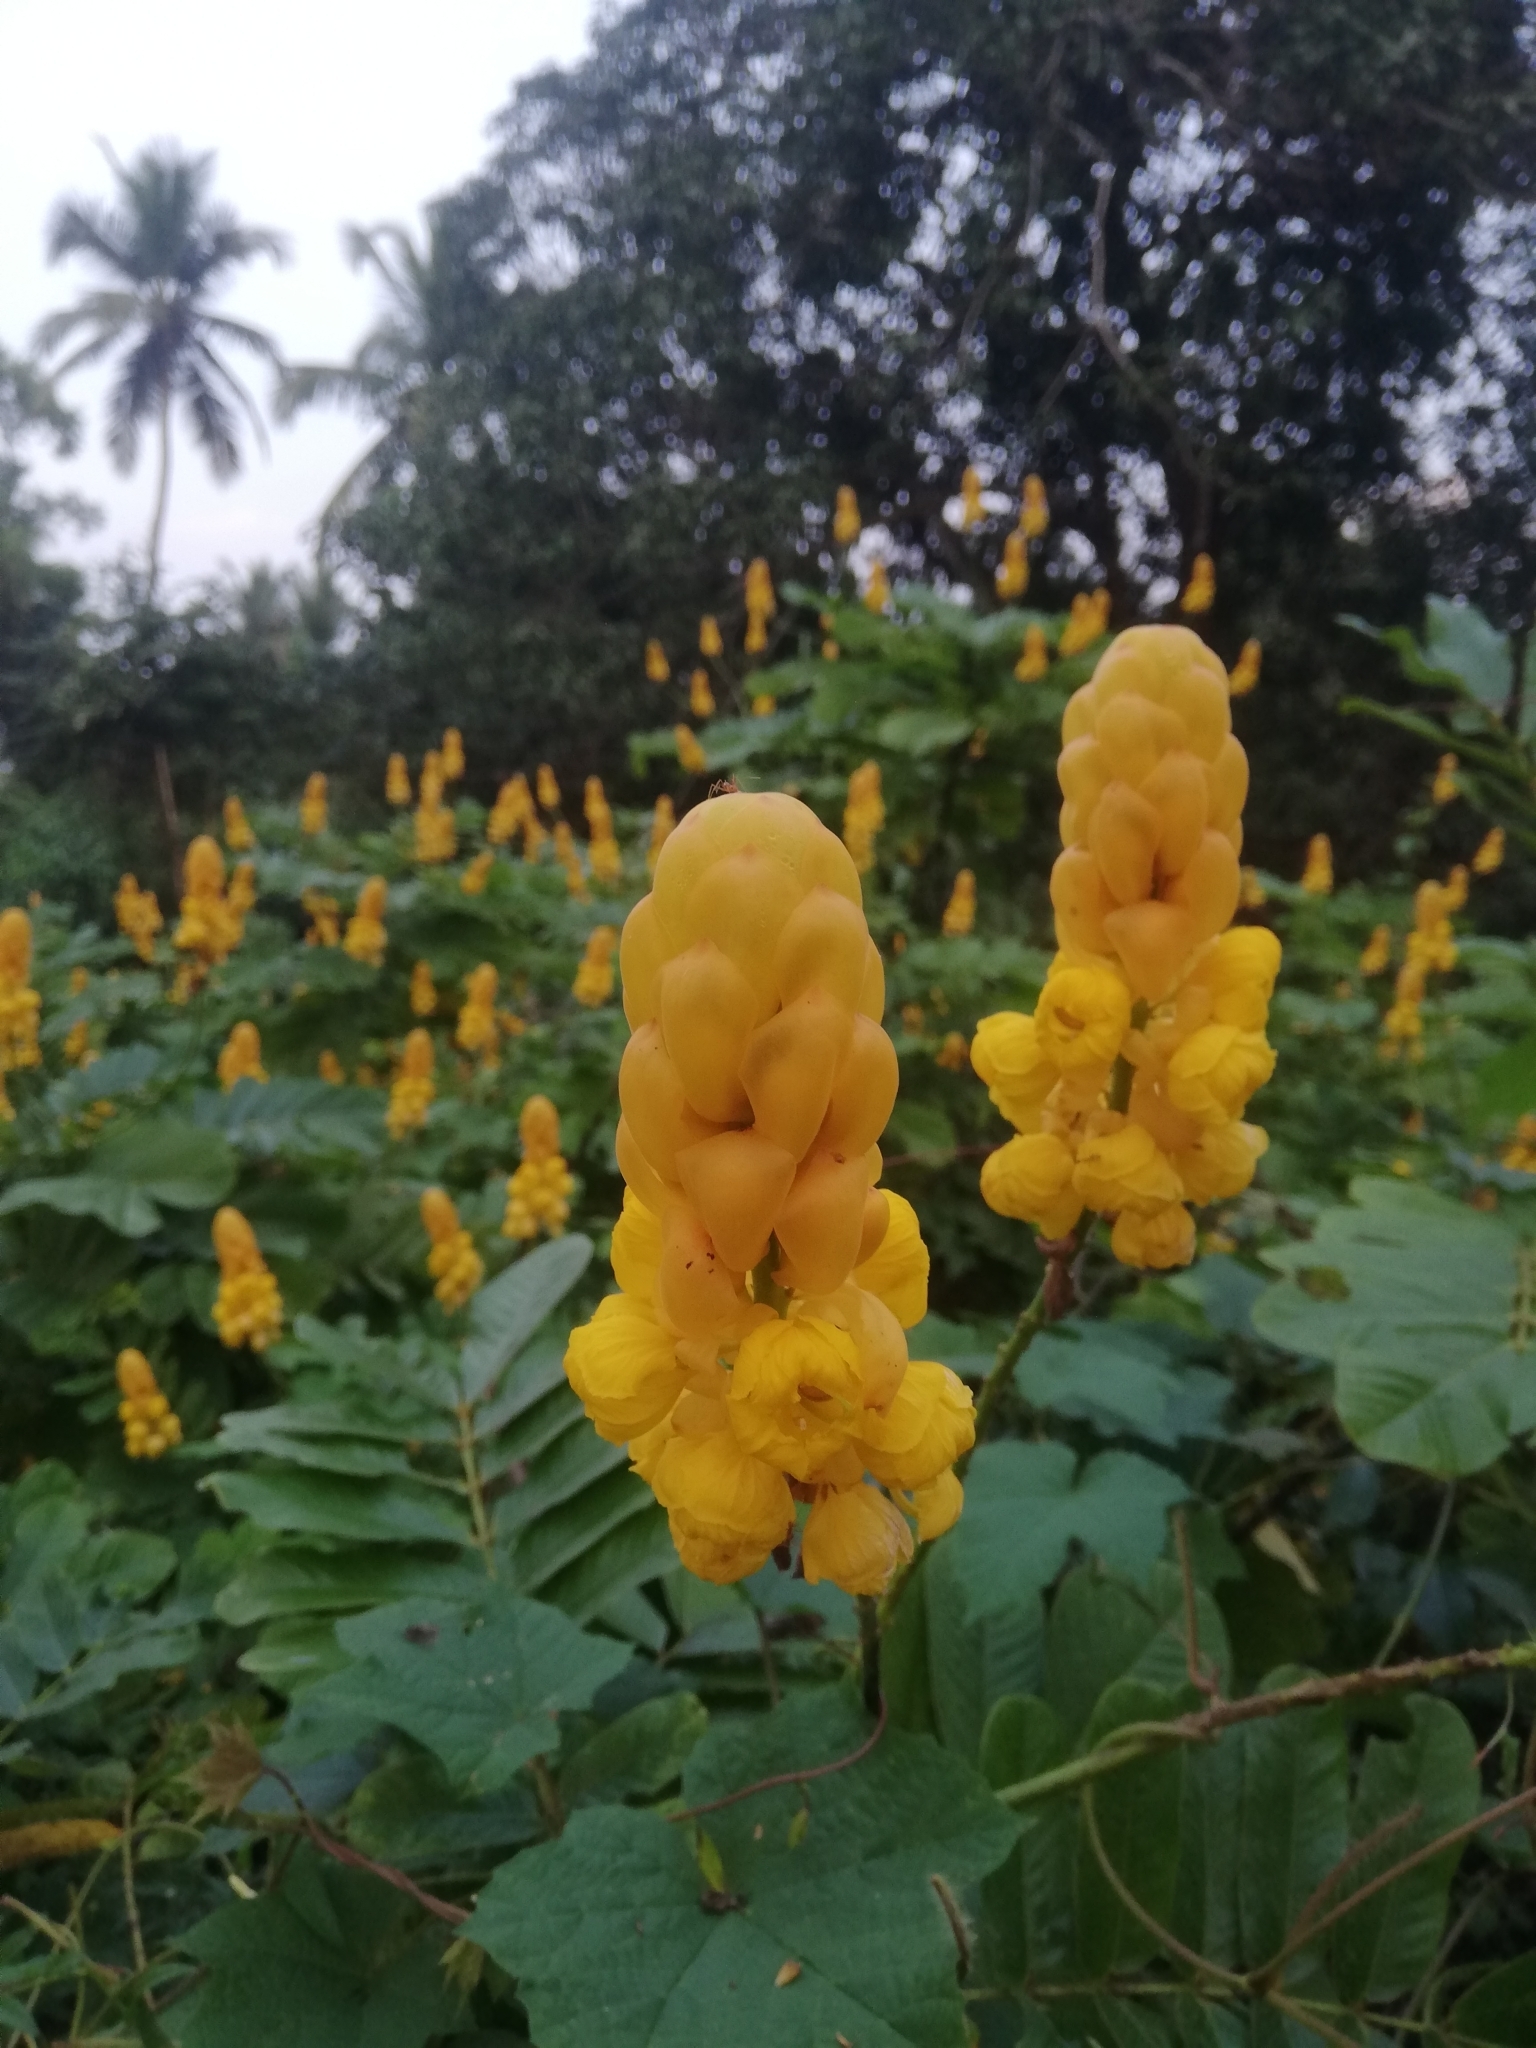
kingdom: Plantae
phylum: Tracheophyta
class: Magnoliopsida
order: Fabales
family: Fabaceae
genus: Senna
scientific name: Senna alata
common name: Emperor's candlesticks
